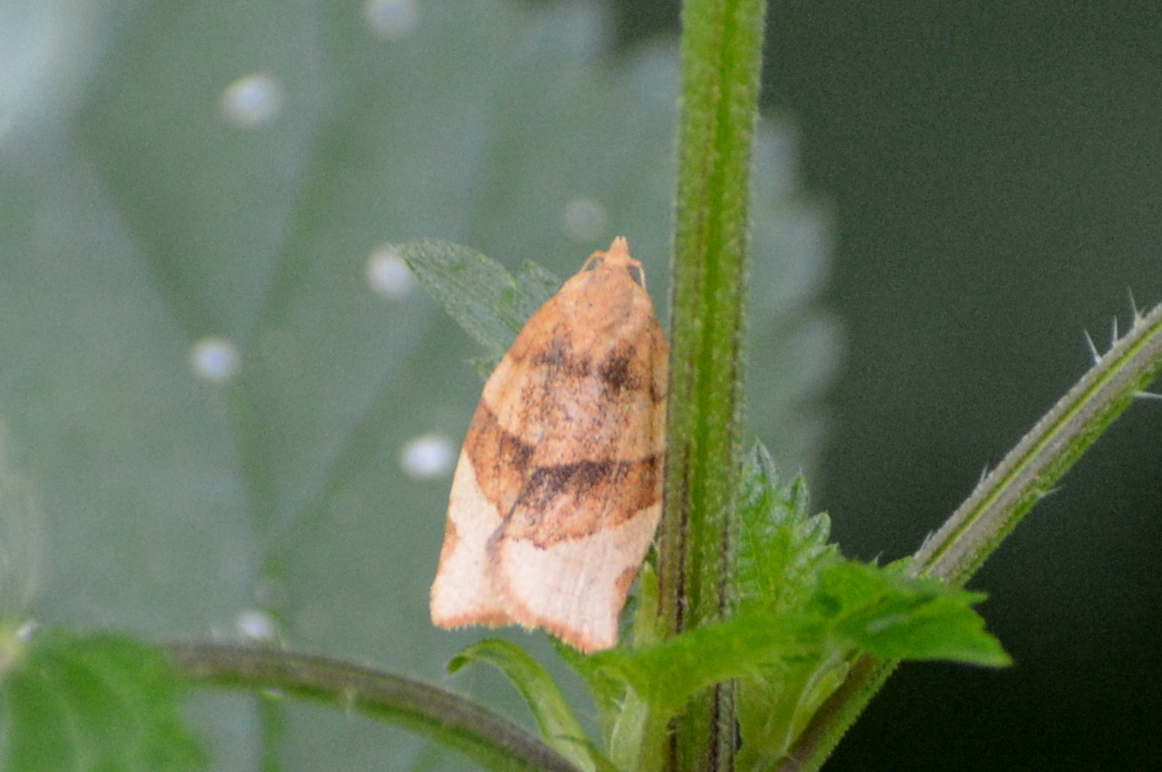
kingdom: Animalia
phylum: Arthropoda
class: Insecta
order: Lepidoptera
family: Tortricidae
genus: Pandemis
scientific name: Pandemis cerasana
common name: Barred fruit-tree tortrix
